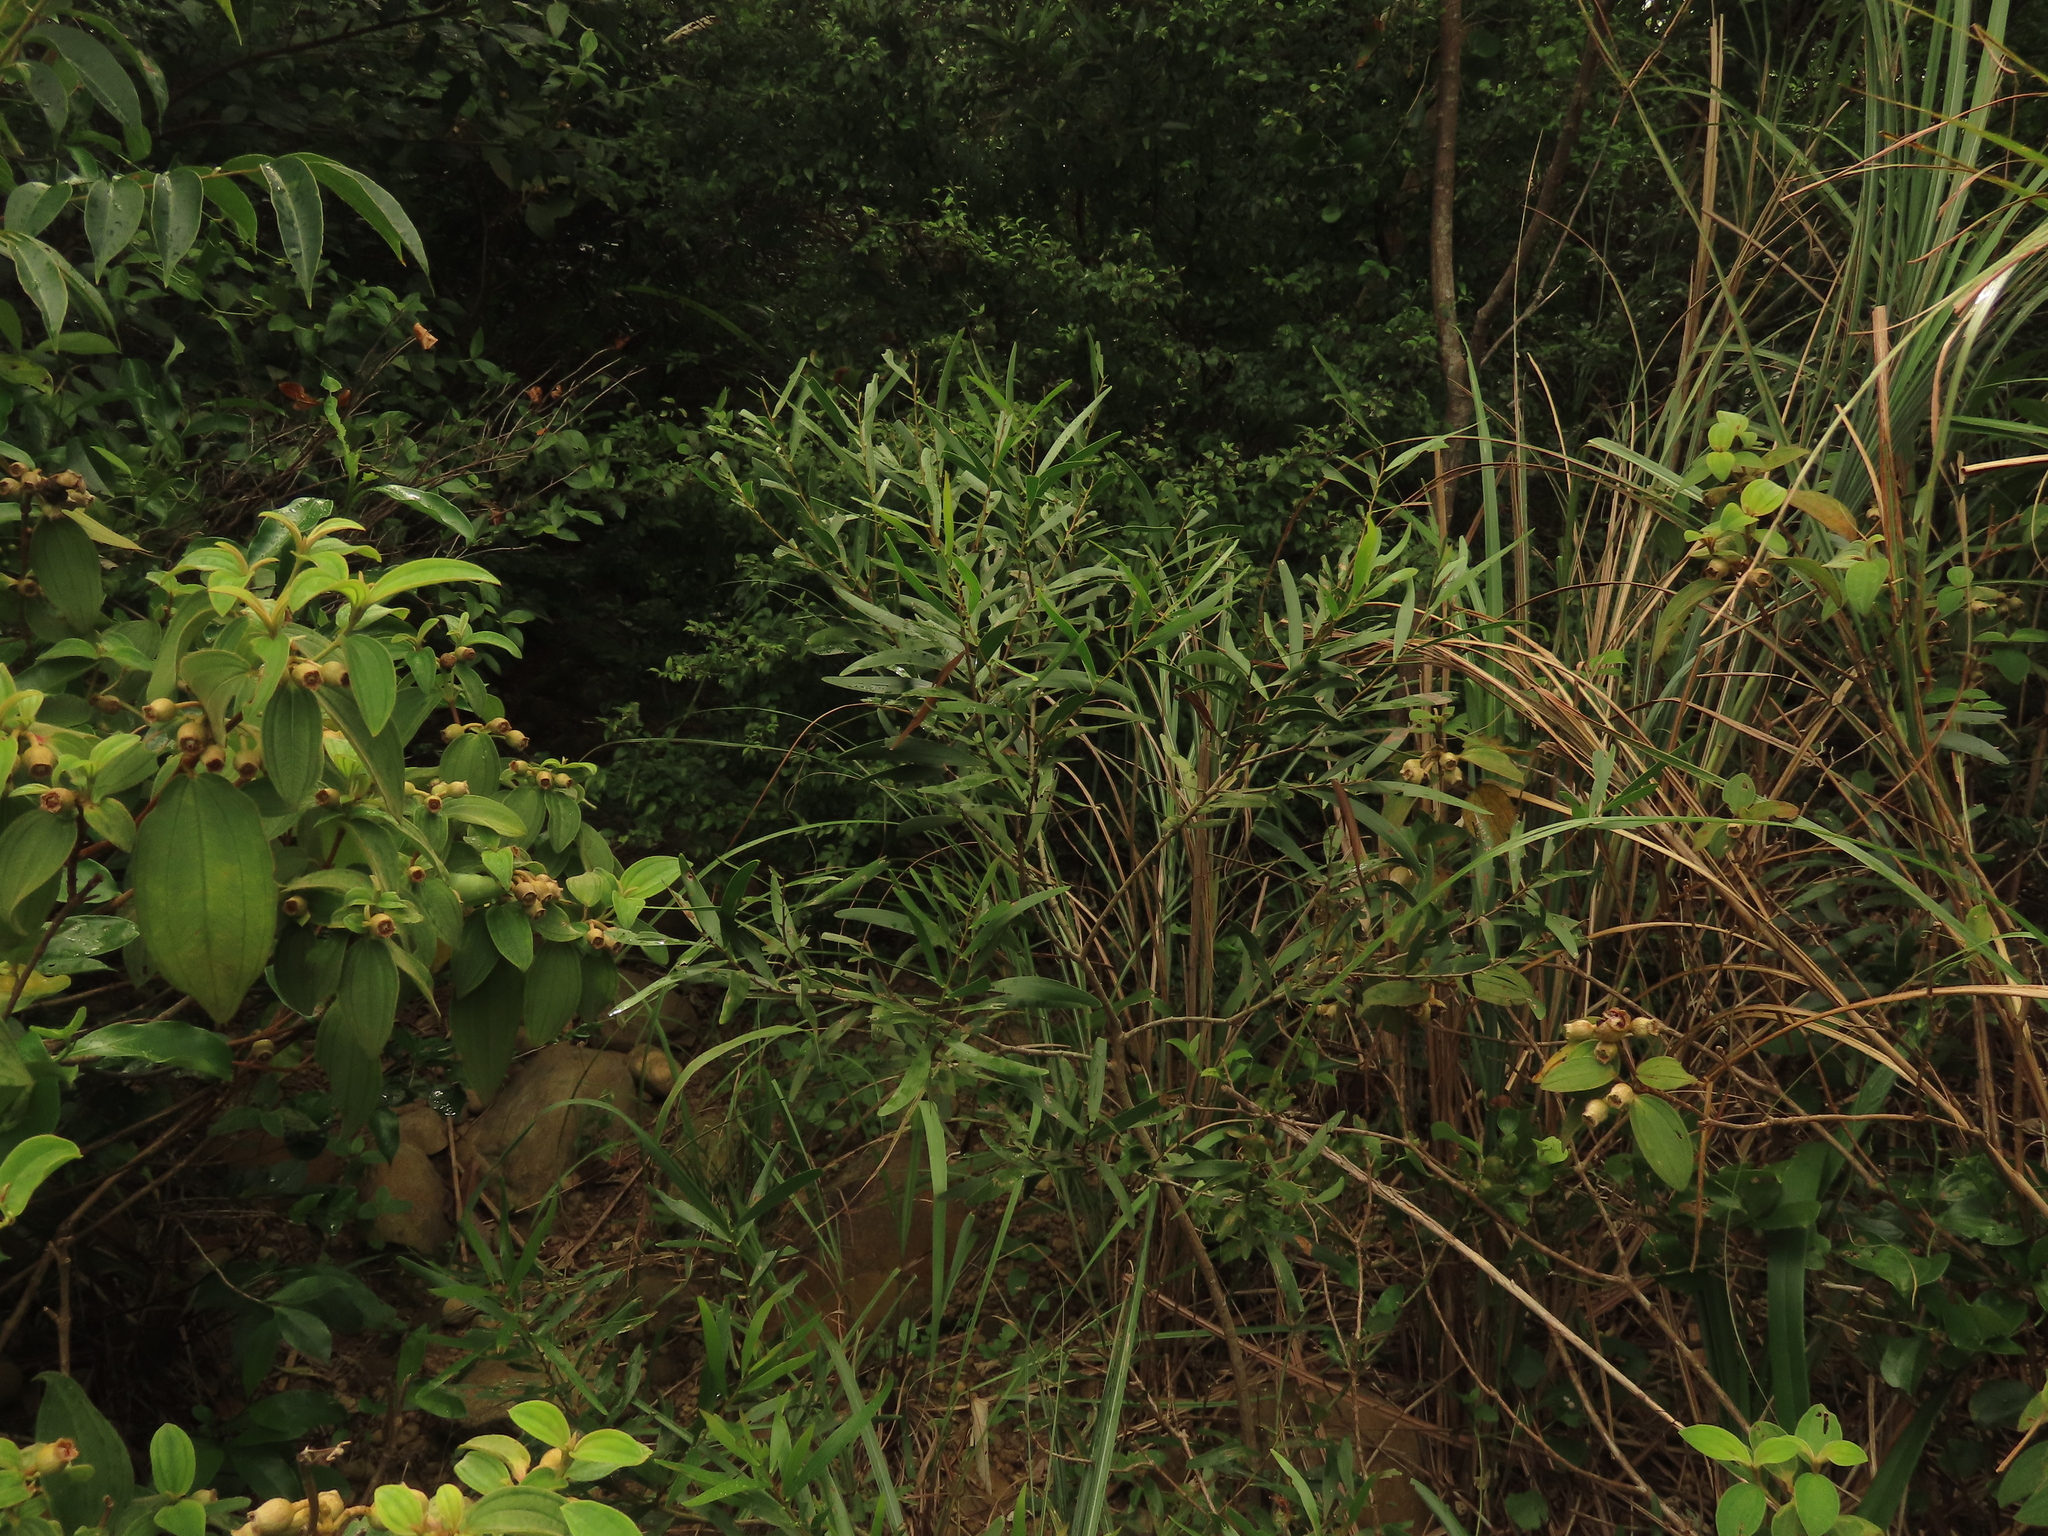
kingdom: Plantae
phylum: Tracheophyta
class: Magnoliopsida
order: Fabales
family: Fabaceae
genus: Acacia
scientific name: Acacia confusa
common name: Formosan koa
